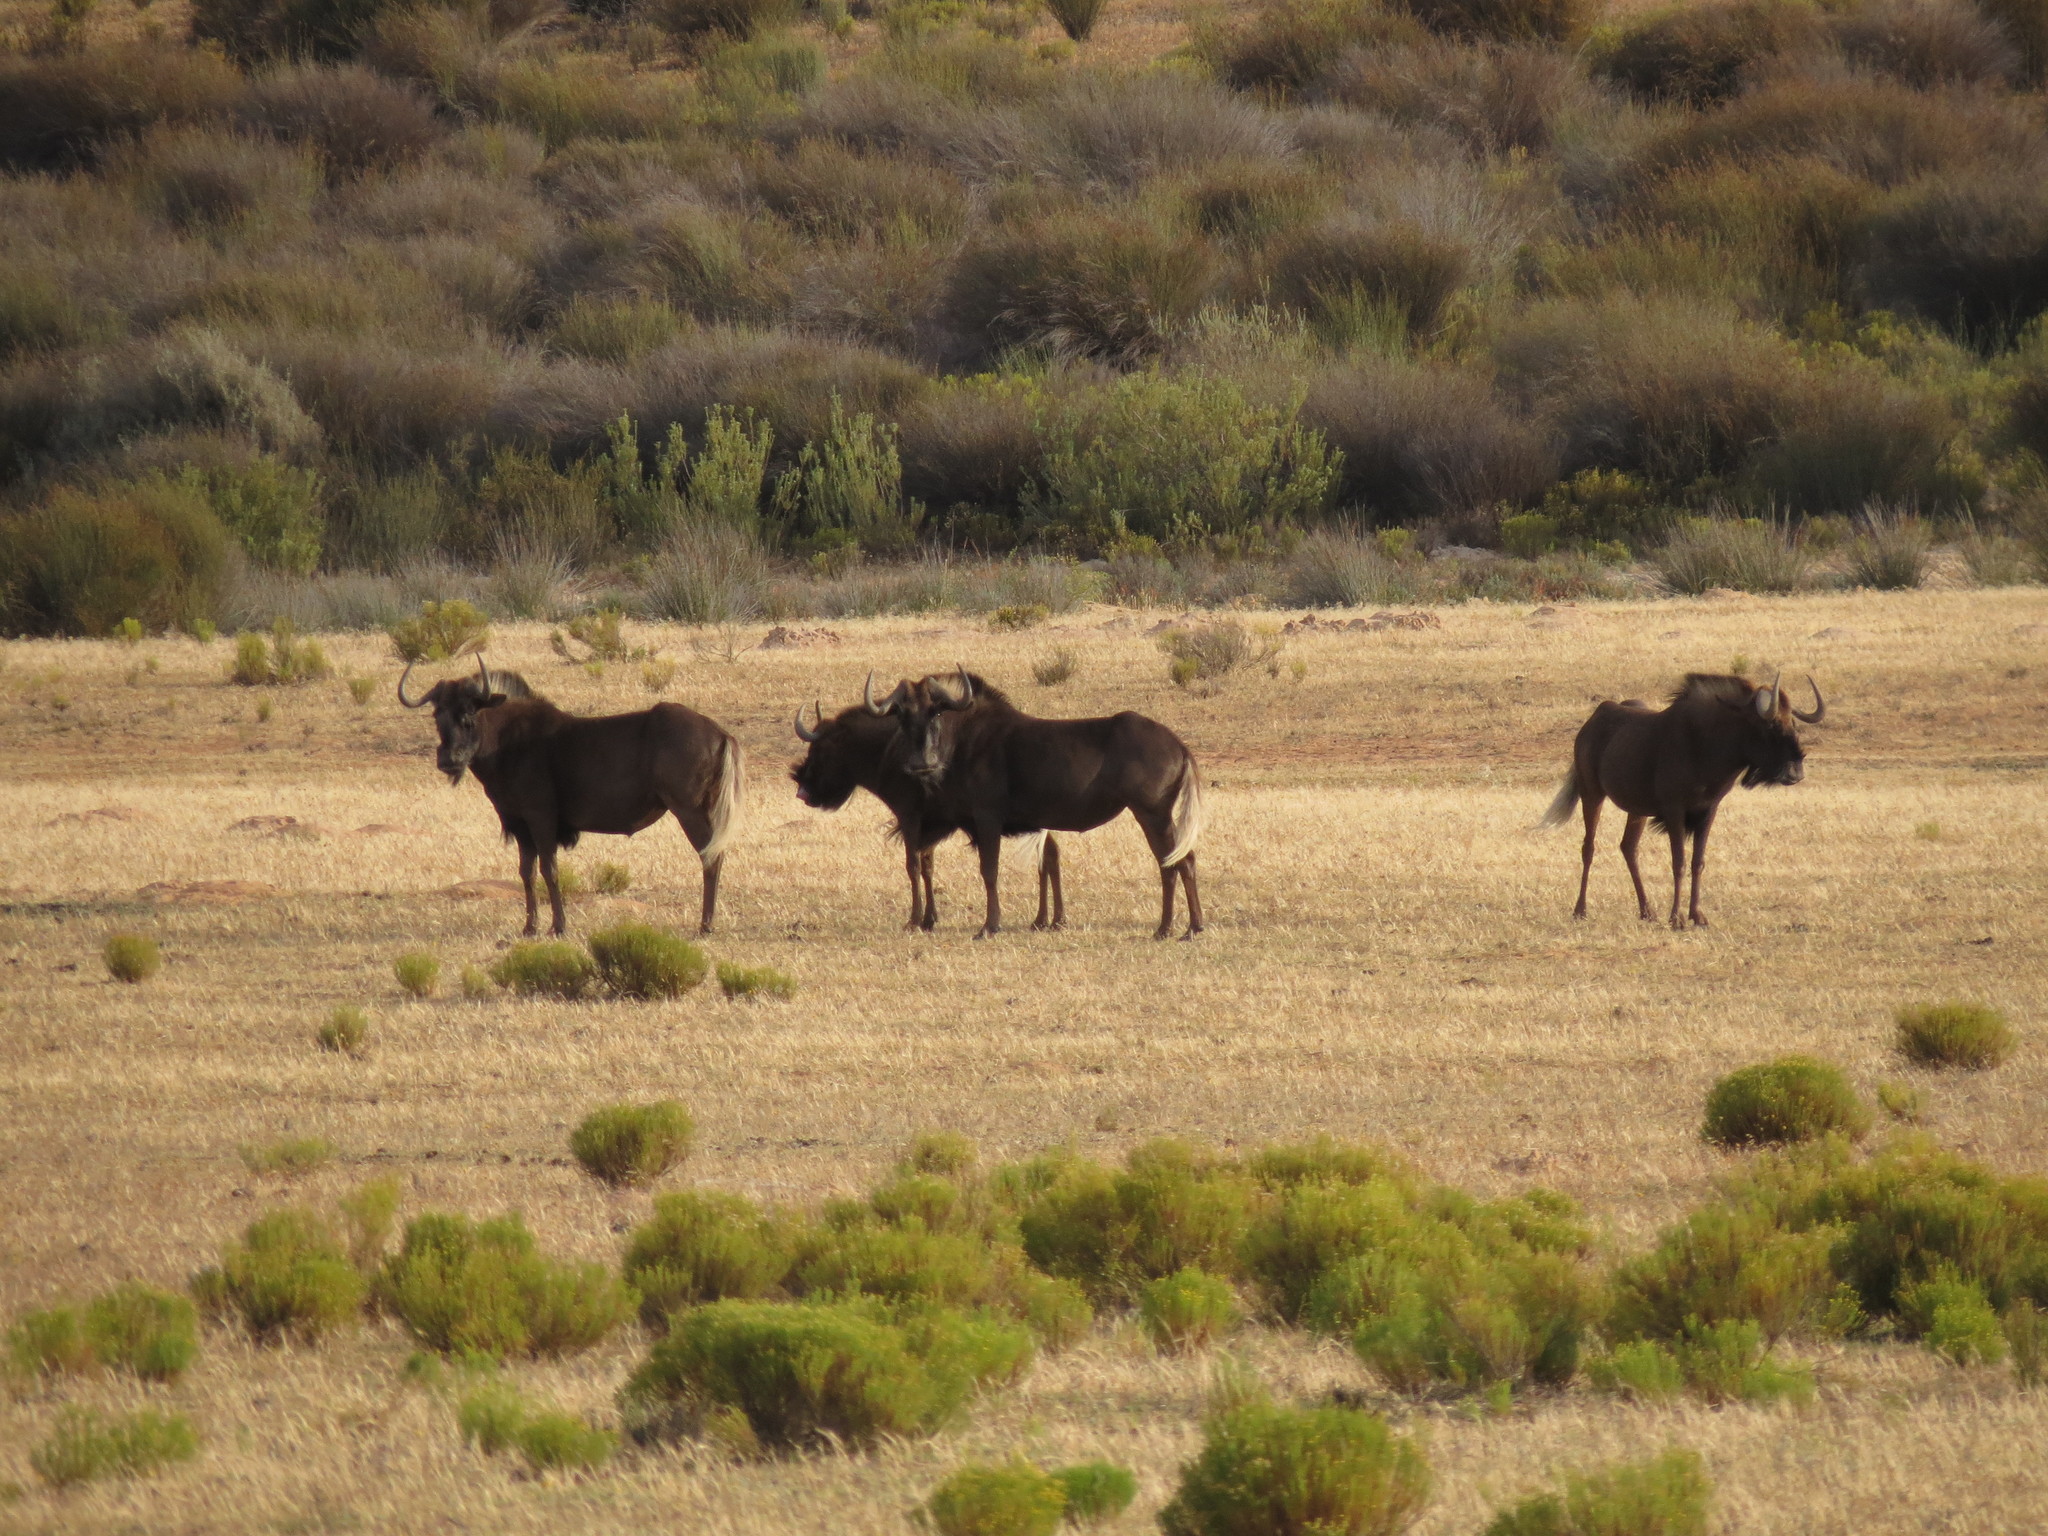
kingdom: Animalia
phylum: Chordata
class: Mammalia
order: Artiodactyla
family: Bovidae
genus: Connochaetes
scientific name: Connochaetes gnou
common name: Black wildebeest
